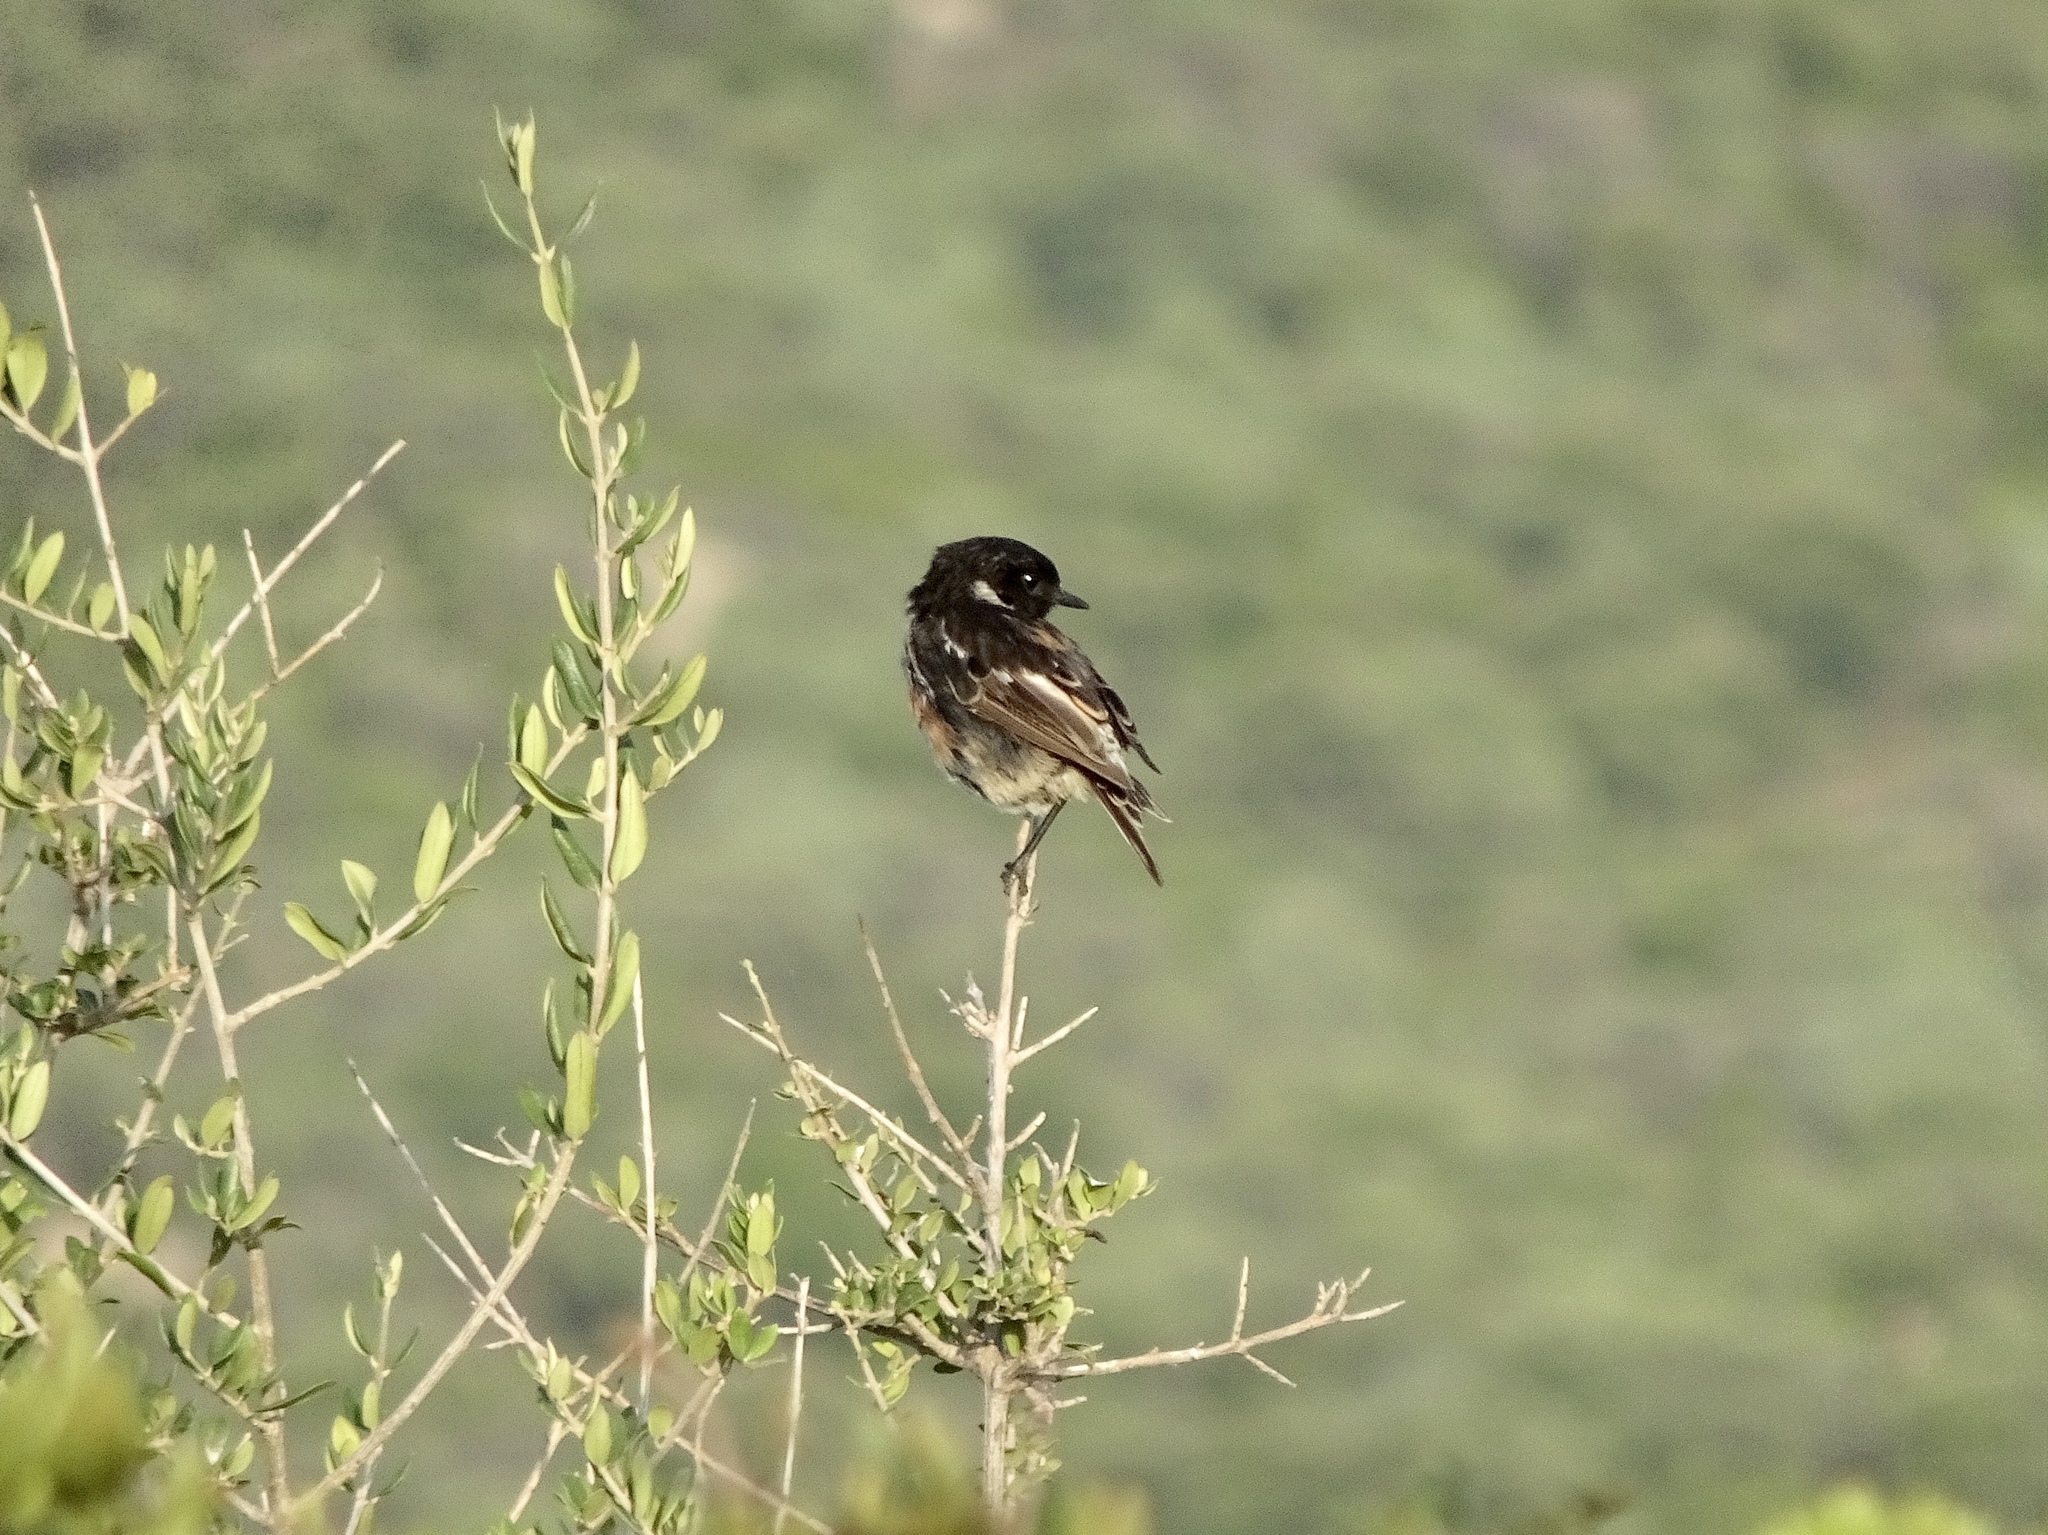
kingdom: Animalia
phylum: Chordata
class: Aves
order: Passeriformes
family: Muscicapidae
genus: Saxicola
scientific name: Saxicola rubicola
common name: European stonechat
